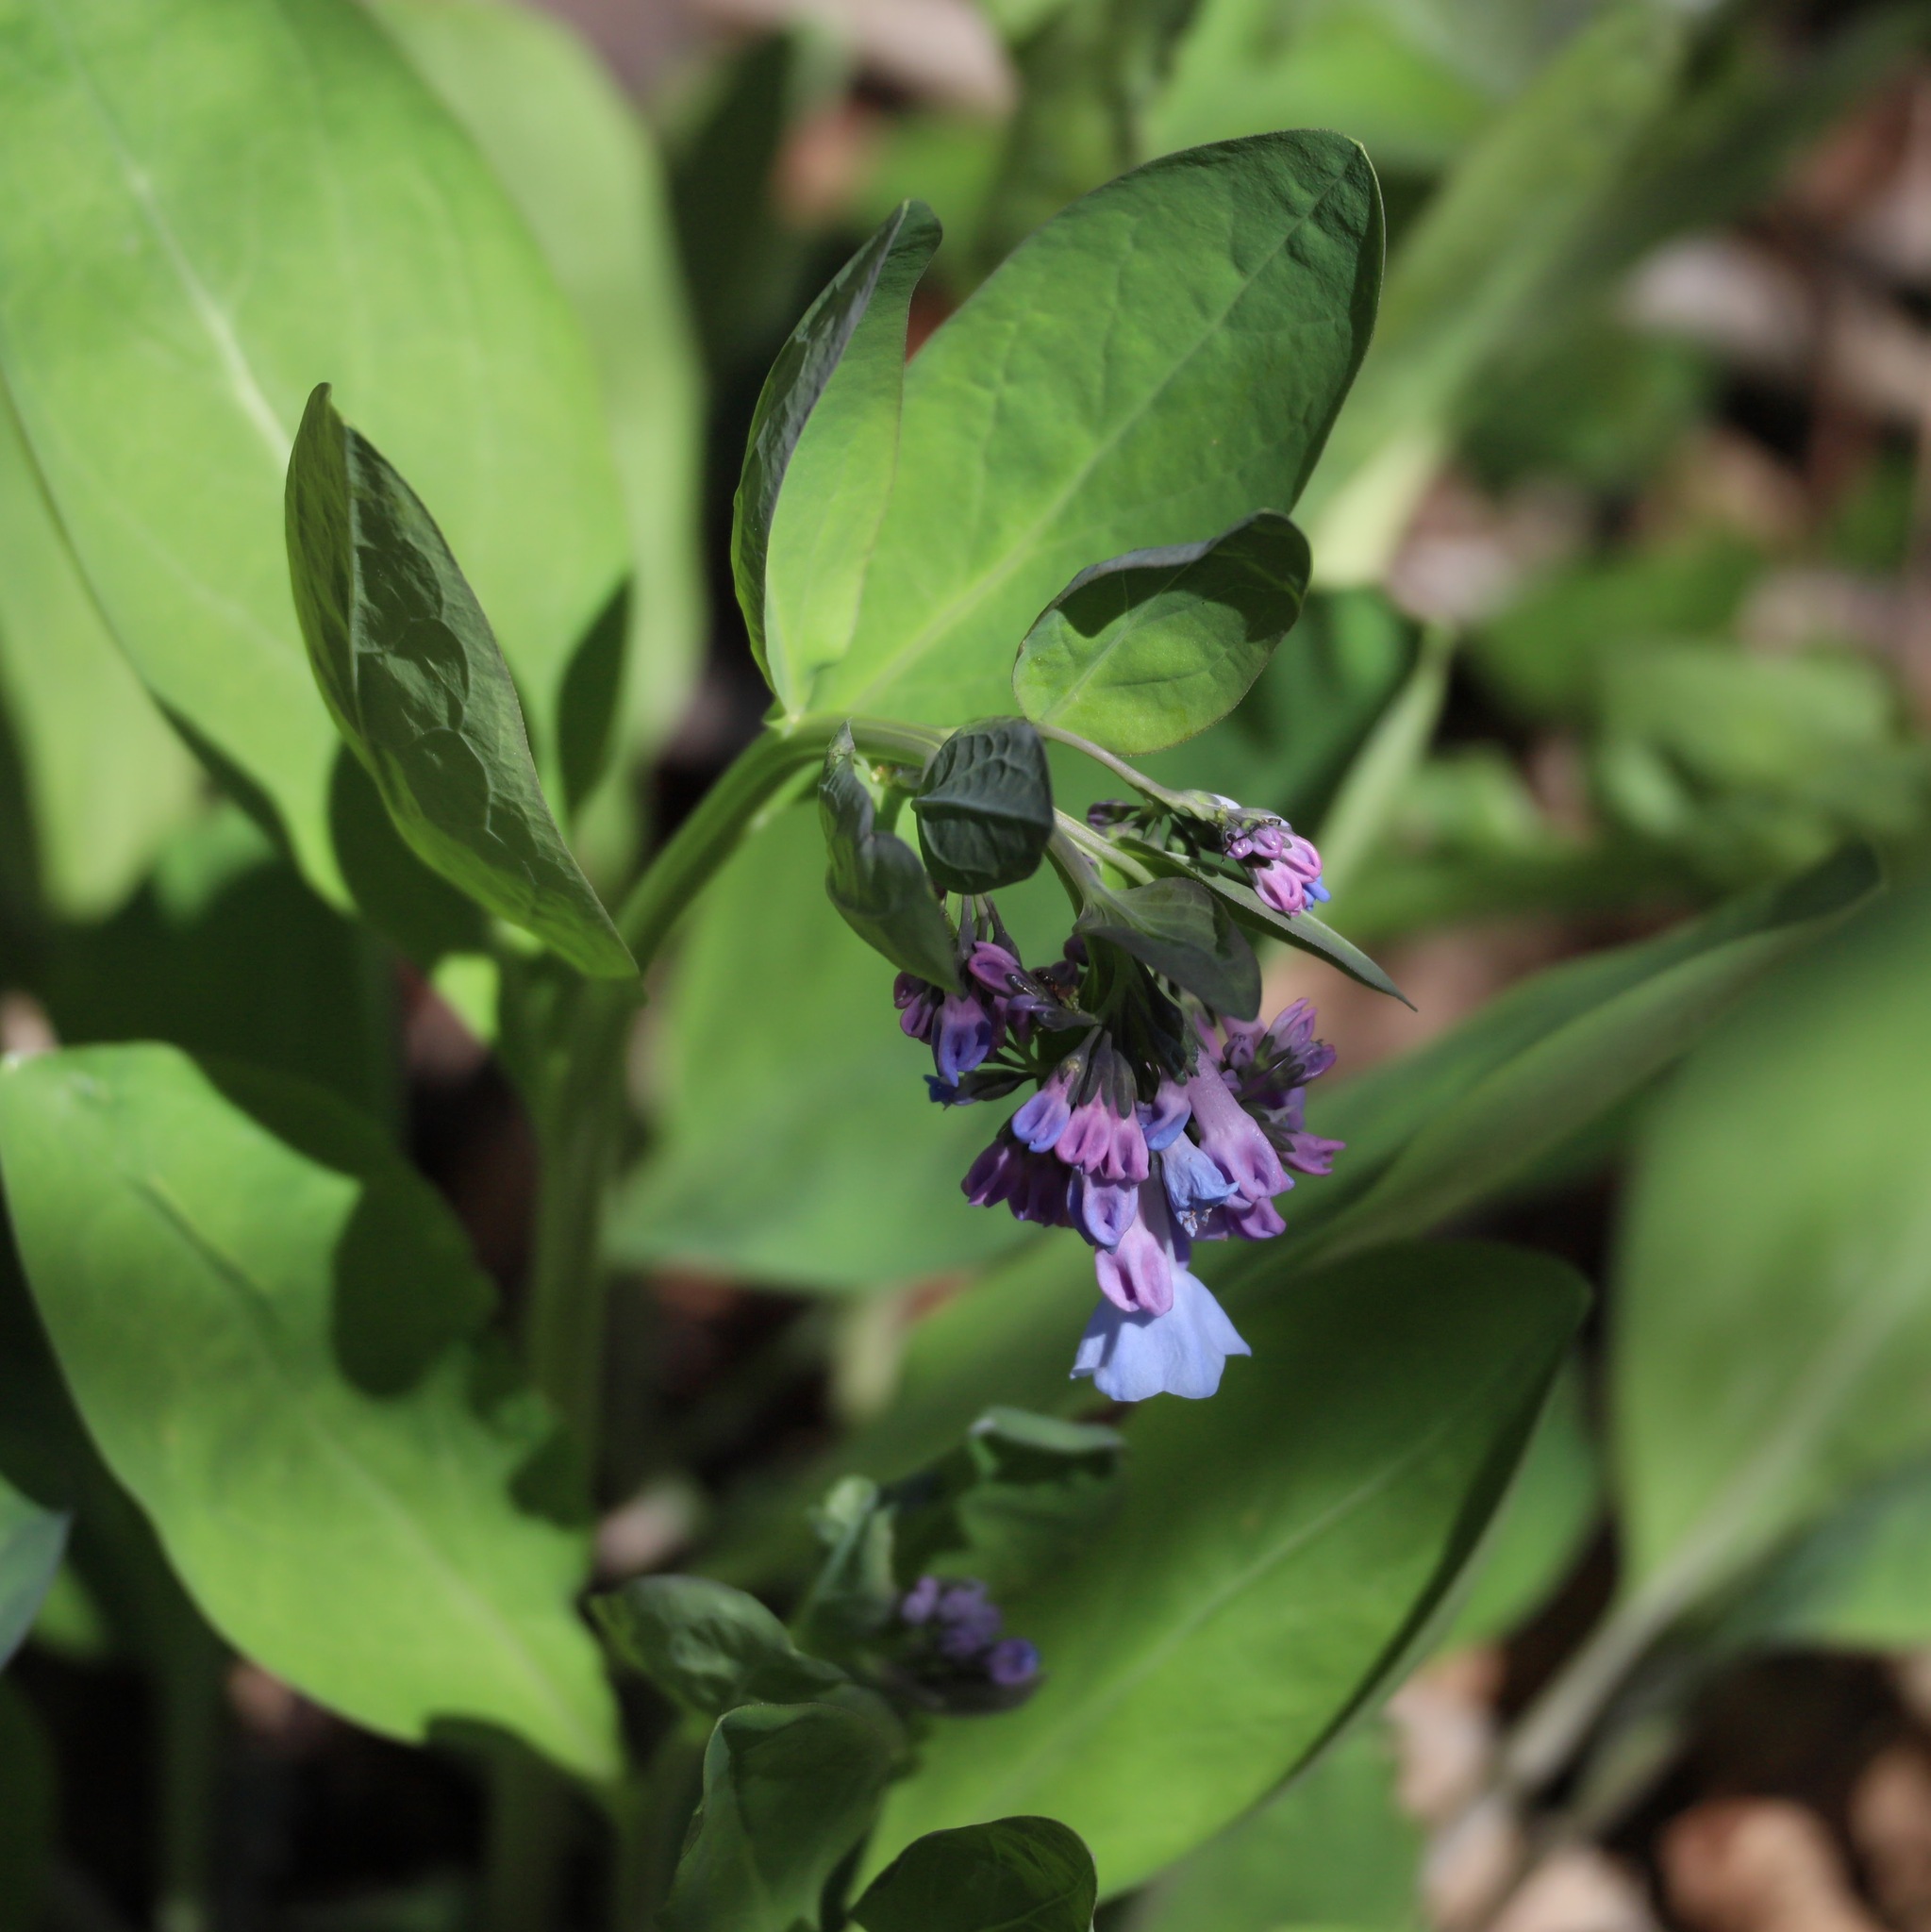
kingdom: Plantae
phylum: Tracheophyta
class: Magnoliopsida
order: Boraginales
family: Boraginaceae
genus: Mertensia
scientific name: Mertensia virginica
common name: Virginia bluebells
